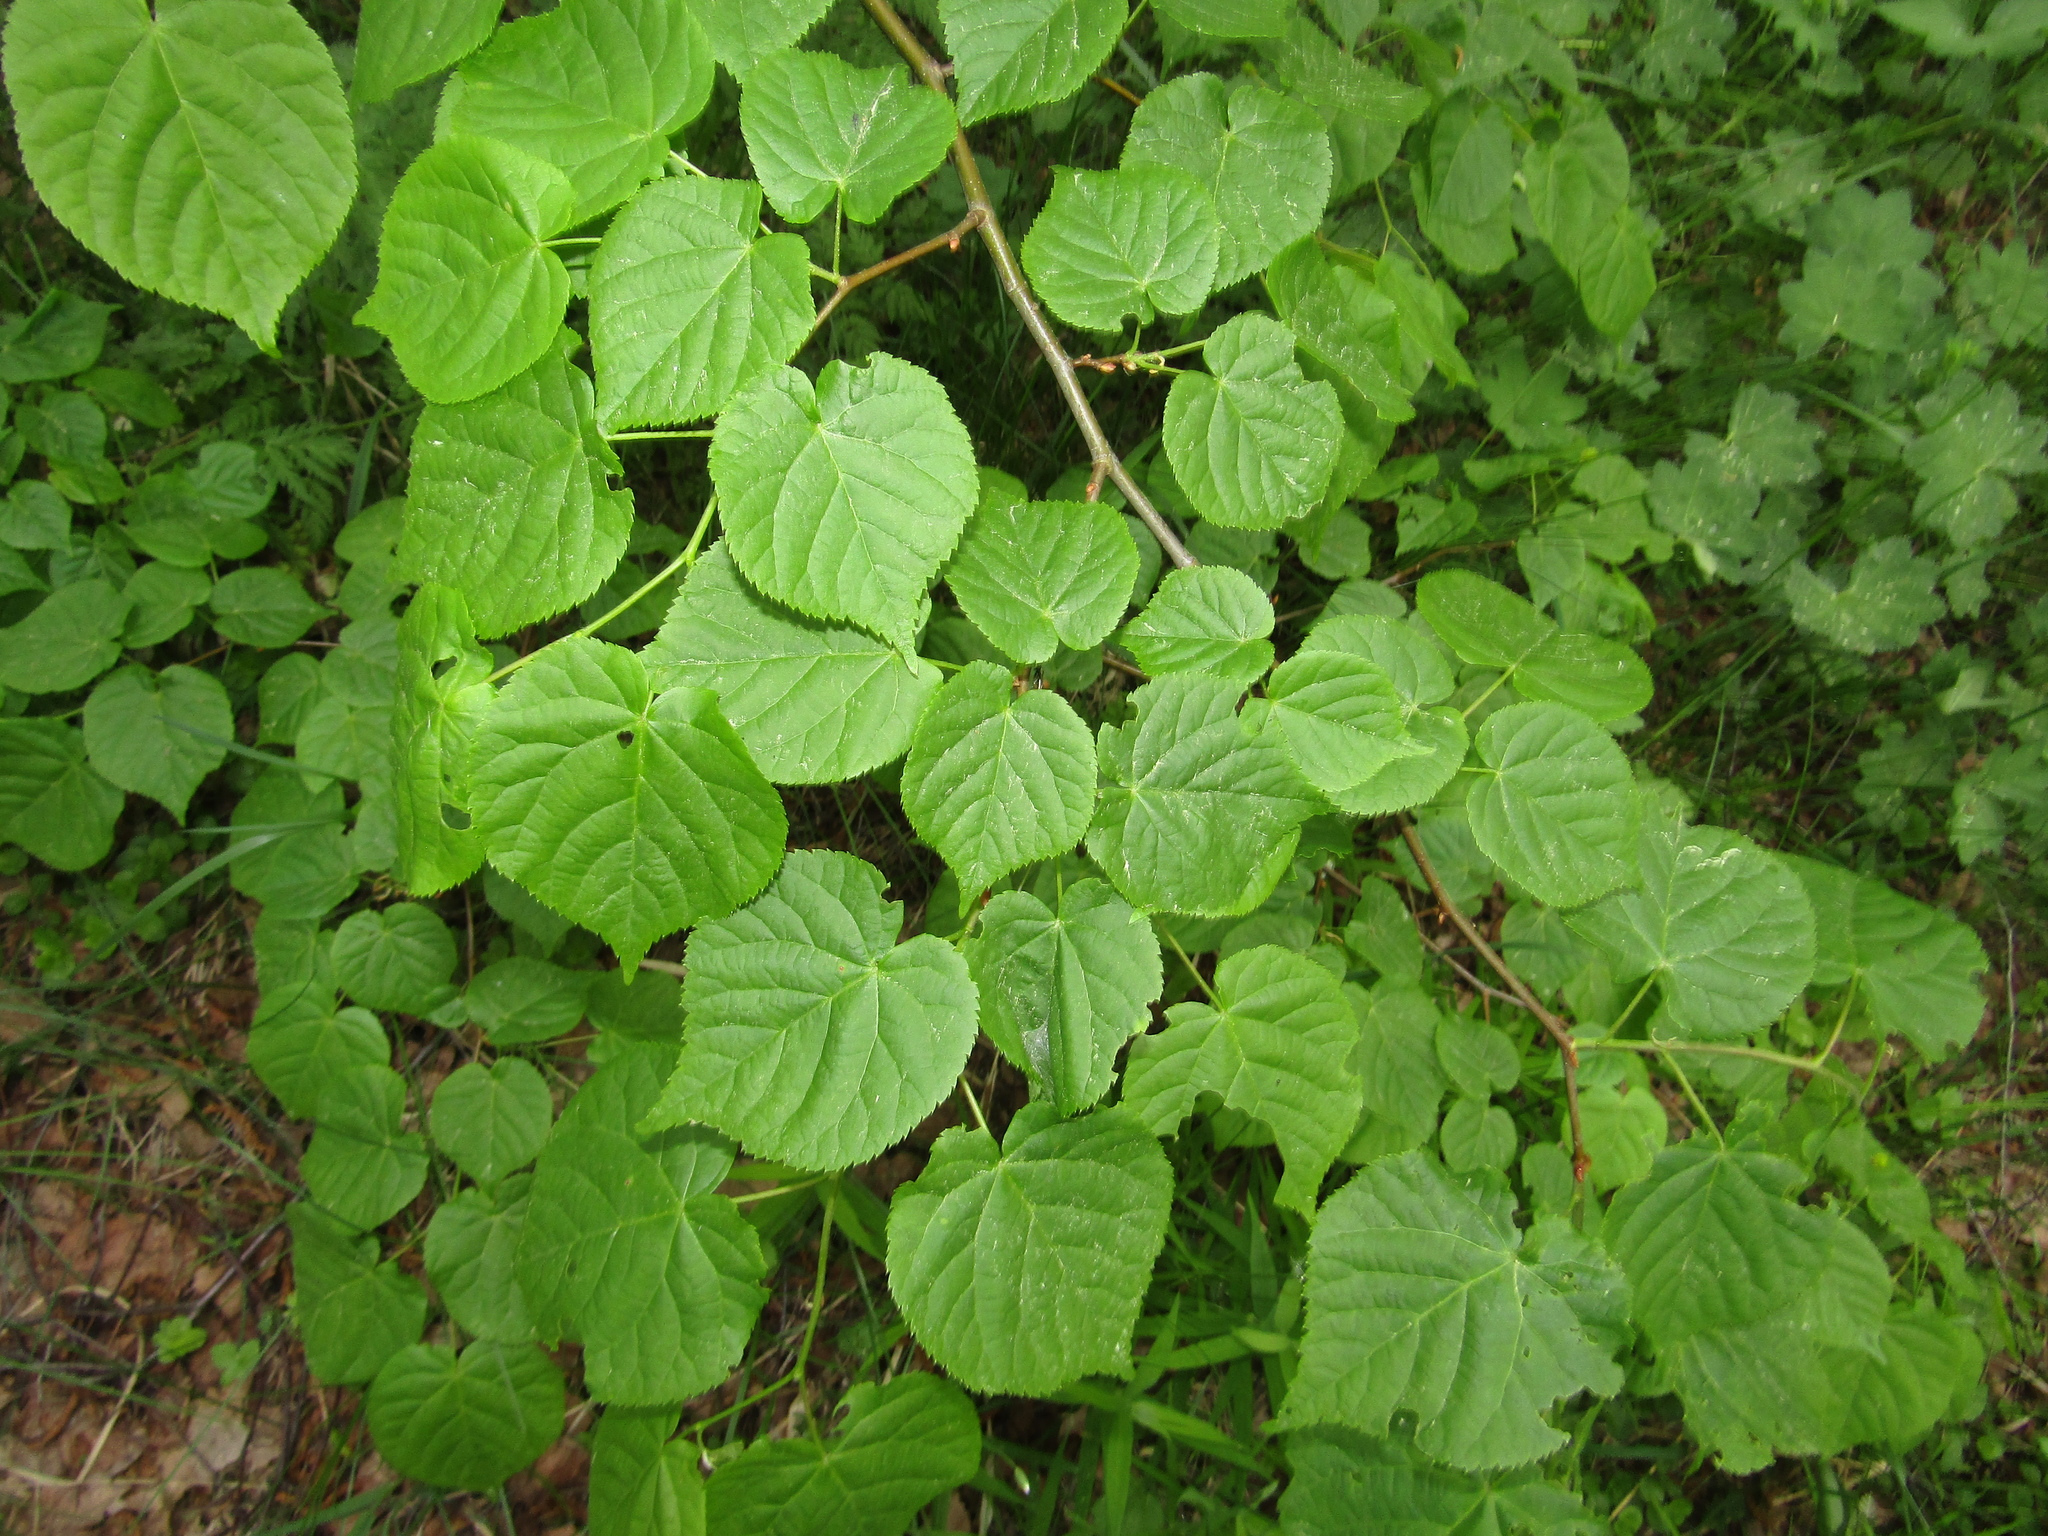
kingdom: Plantae
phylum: Tracheophyta
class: Magnoliopsida
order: Malvales
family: Malvaceae
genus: Tilia
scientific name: Tilia cordata
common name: Small-leaved lime
